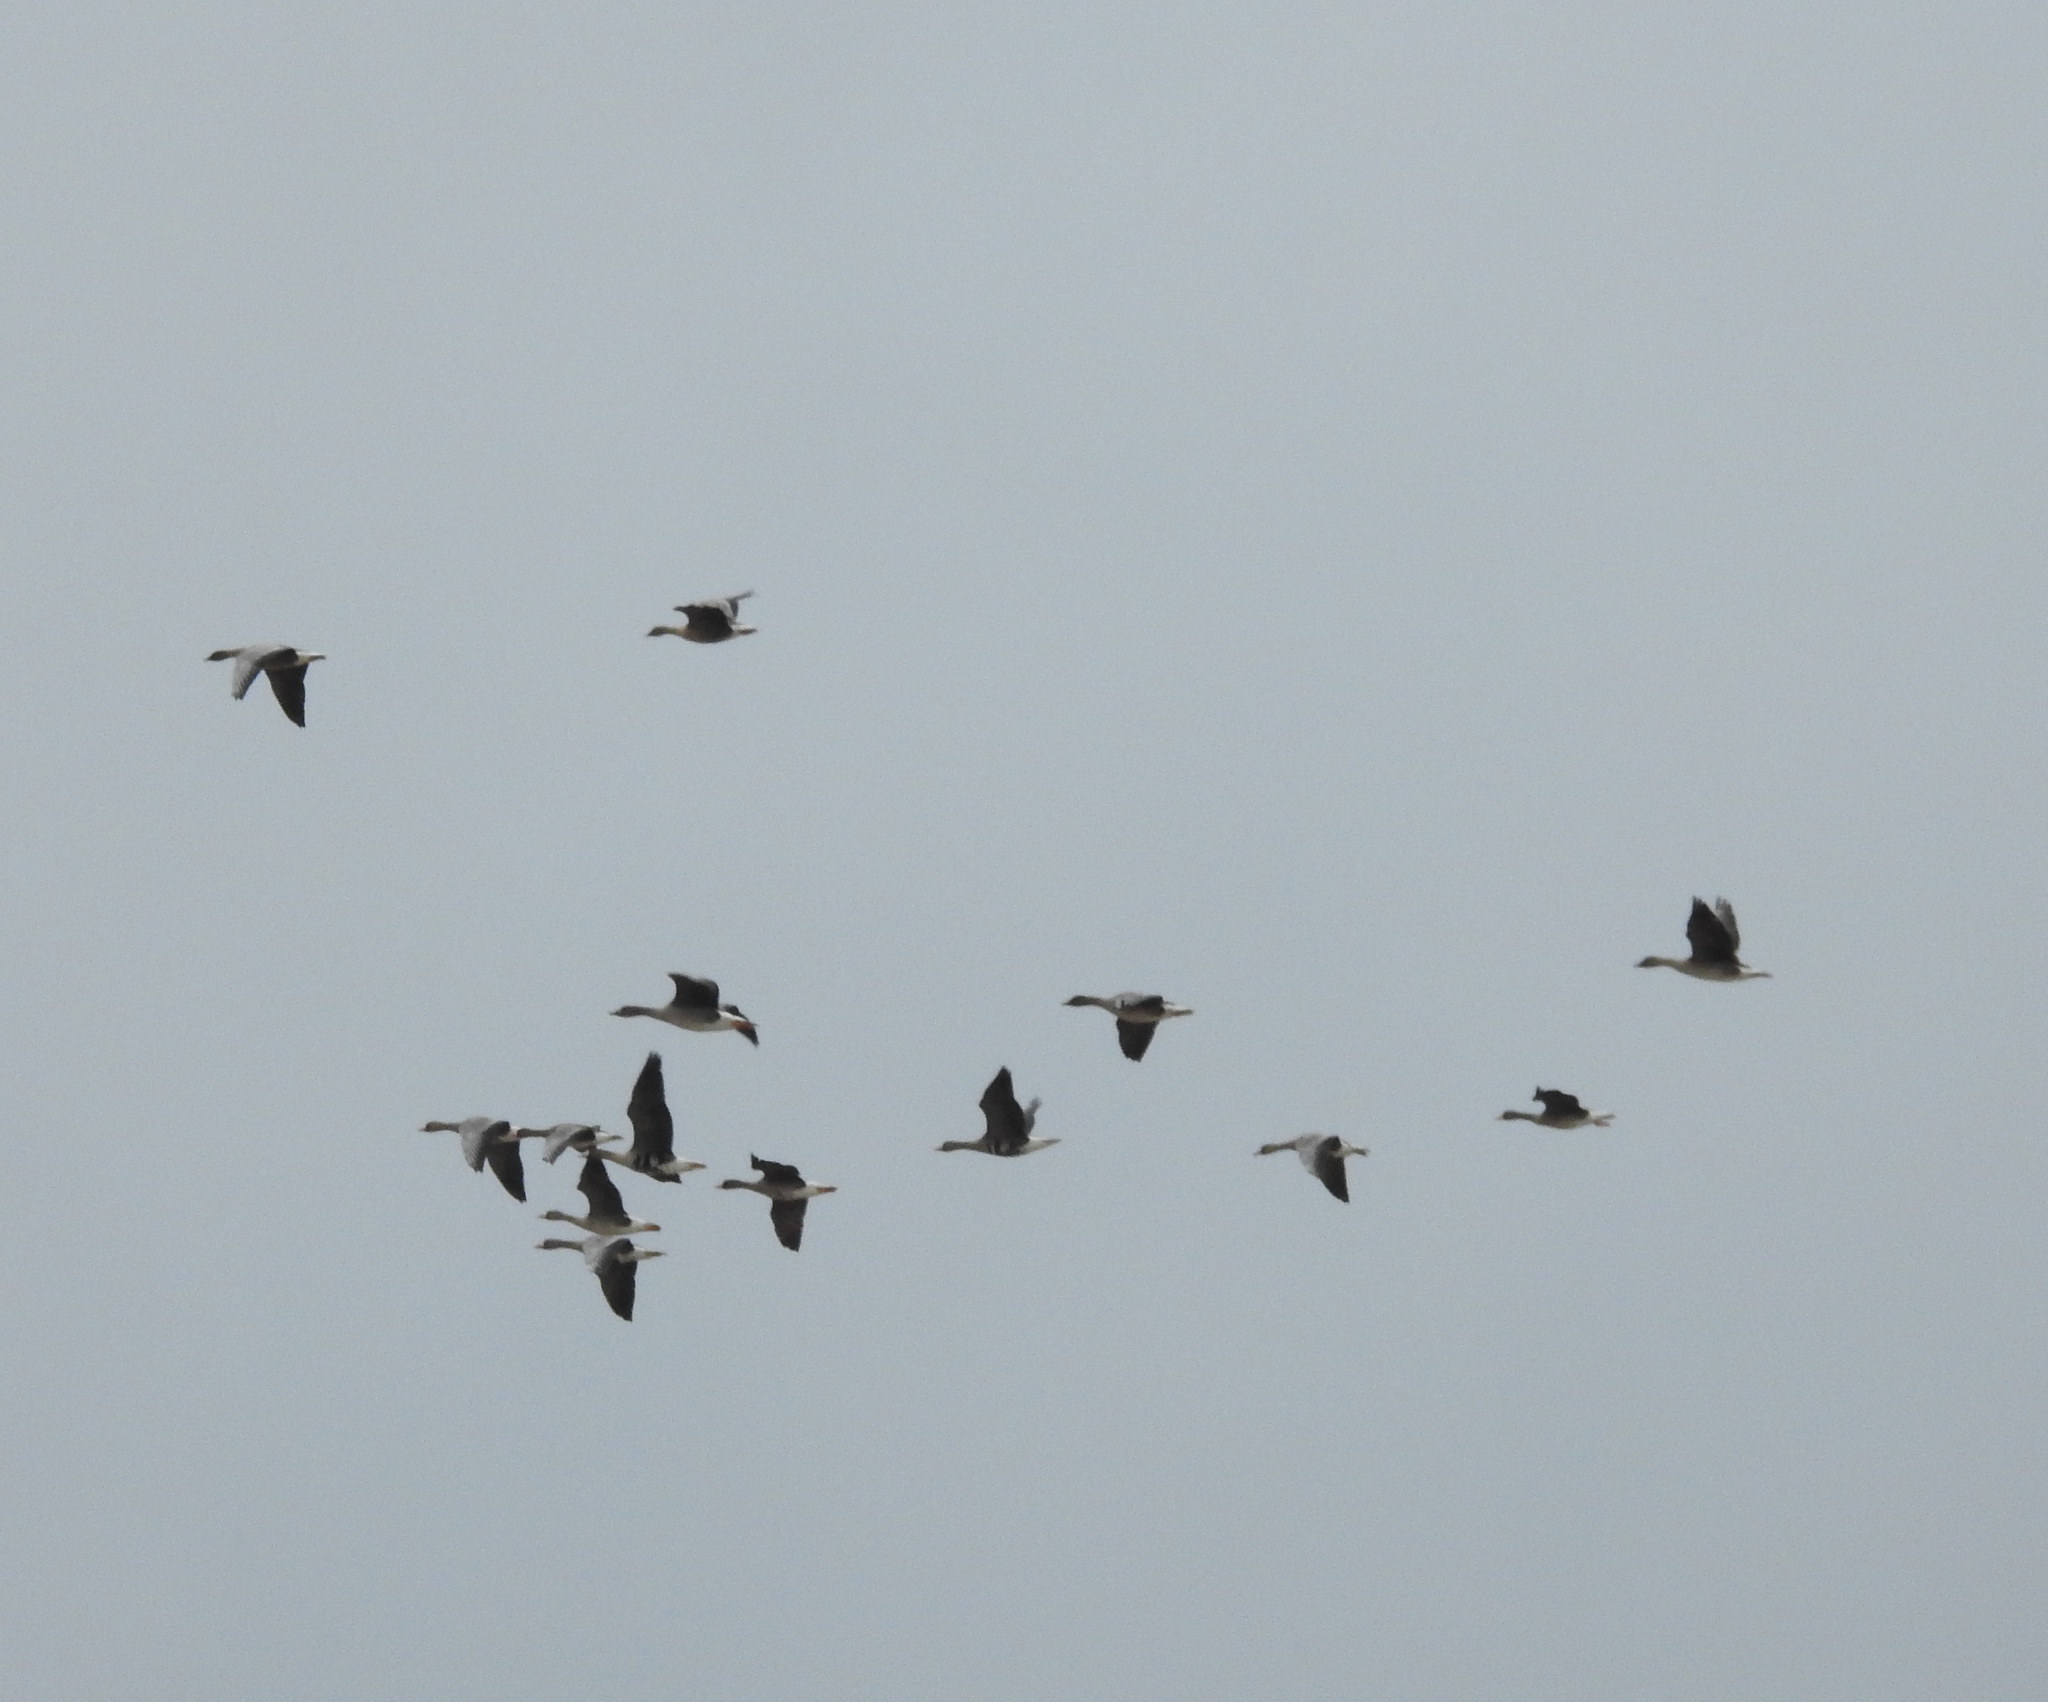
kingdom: Animalia
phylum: Chordata
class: Aves
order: Anseriformes
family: Anatidae
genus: Anser
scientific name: Anser albifrons
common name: Greater white-fronted goose
